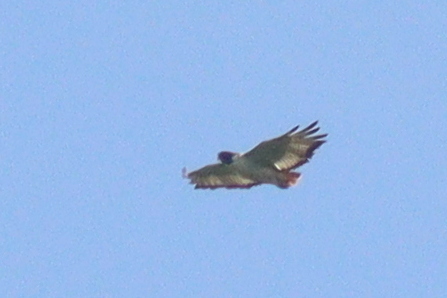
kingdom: Animalia
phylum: Chordata
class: Aves
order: Accipitriformes
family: Accipitridae
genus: Buteo
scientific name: Buteo augur
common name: Augur buzzard
